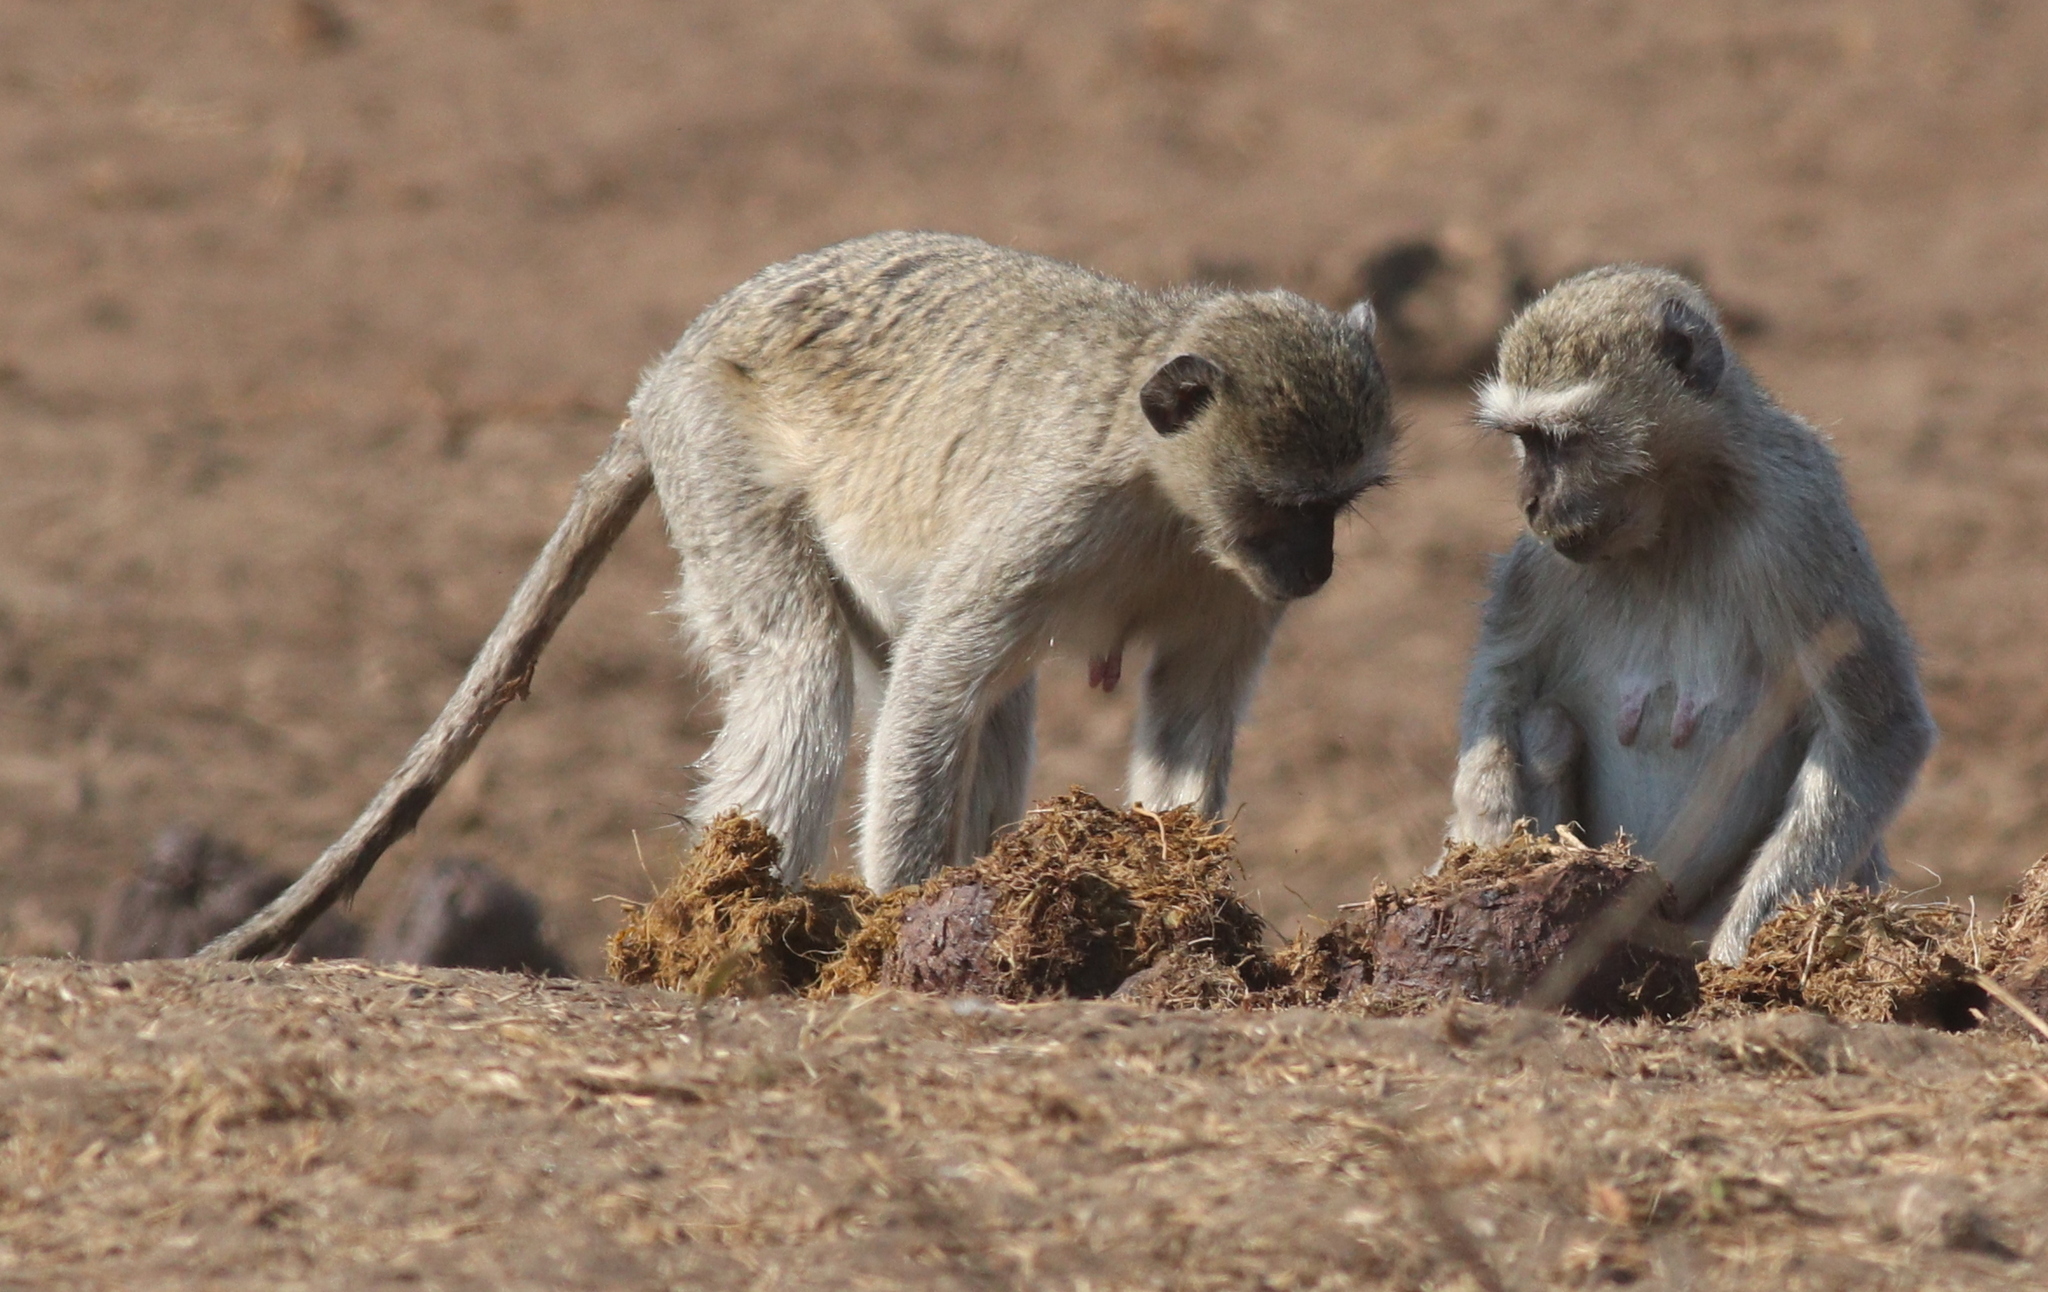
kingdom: Animalia
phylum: Chordata
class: Mammalia
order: Primates
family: Cercopithecidae
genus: Chlorocebus
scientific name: Chlorocebus pygerythrus
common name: Vervet monkey
